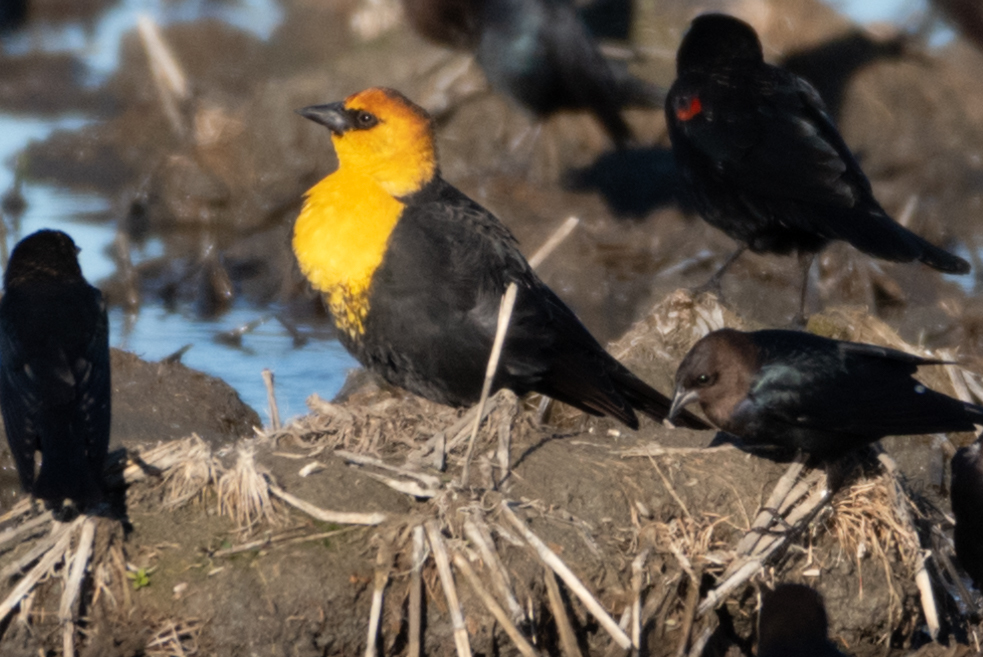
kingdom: Animalia
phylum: Chordata
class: Aves
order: Passeriformes
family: Icteridae
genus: Xanthocephalus
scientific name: Xanthocephalus xanthocephalus
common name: Yellow-headed blackbird
